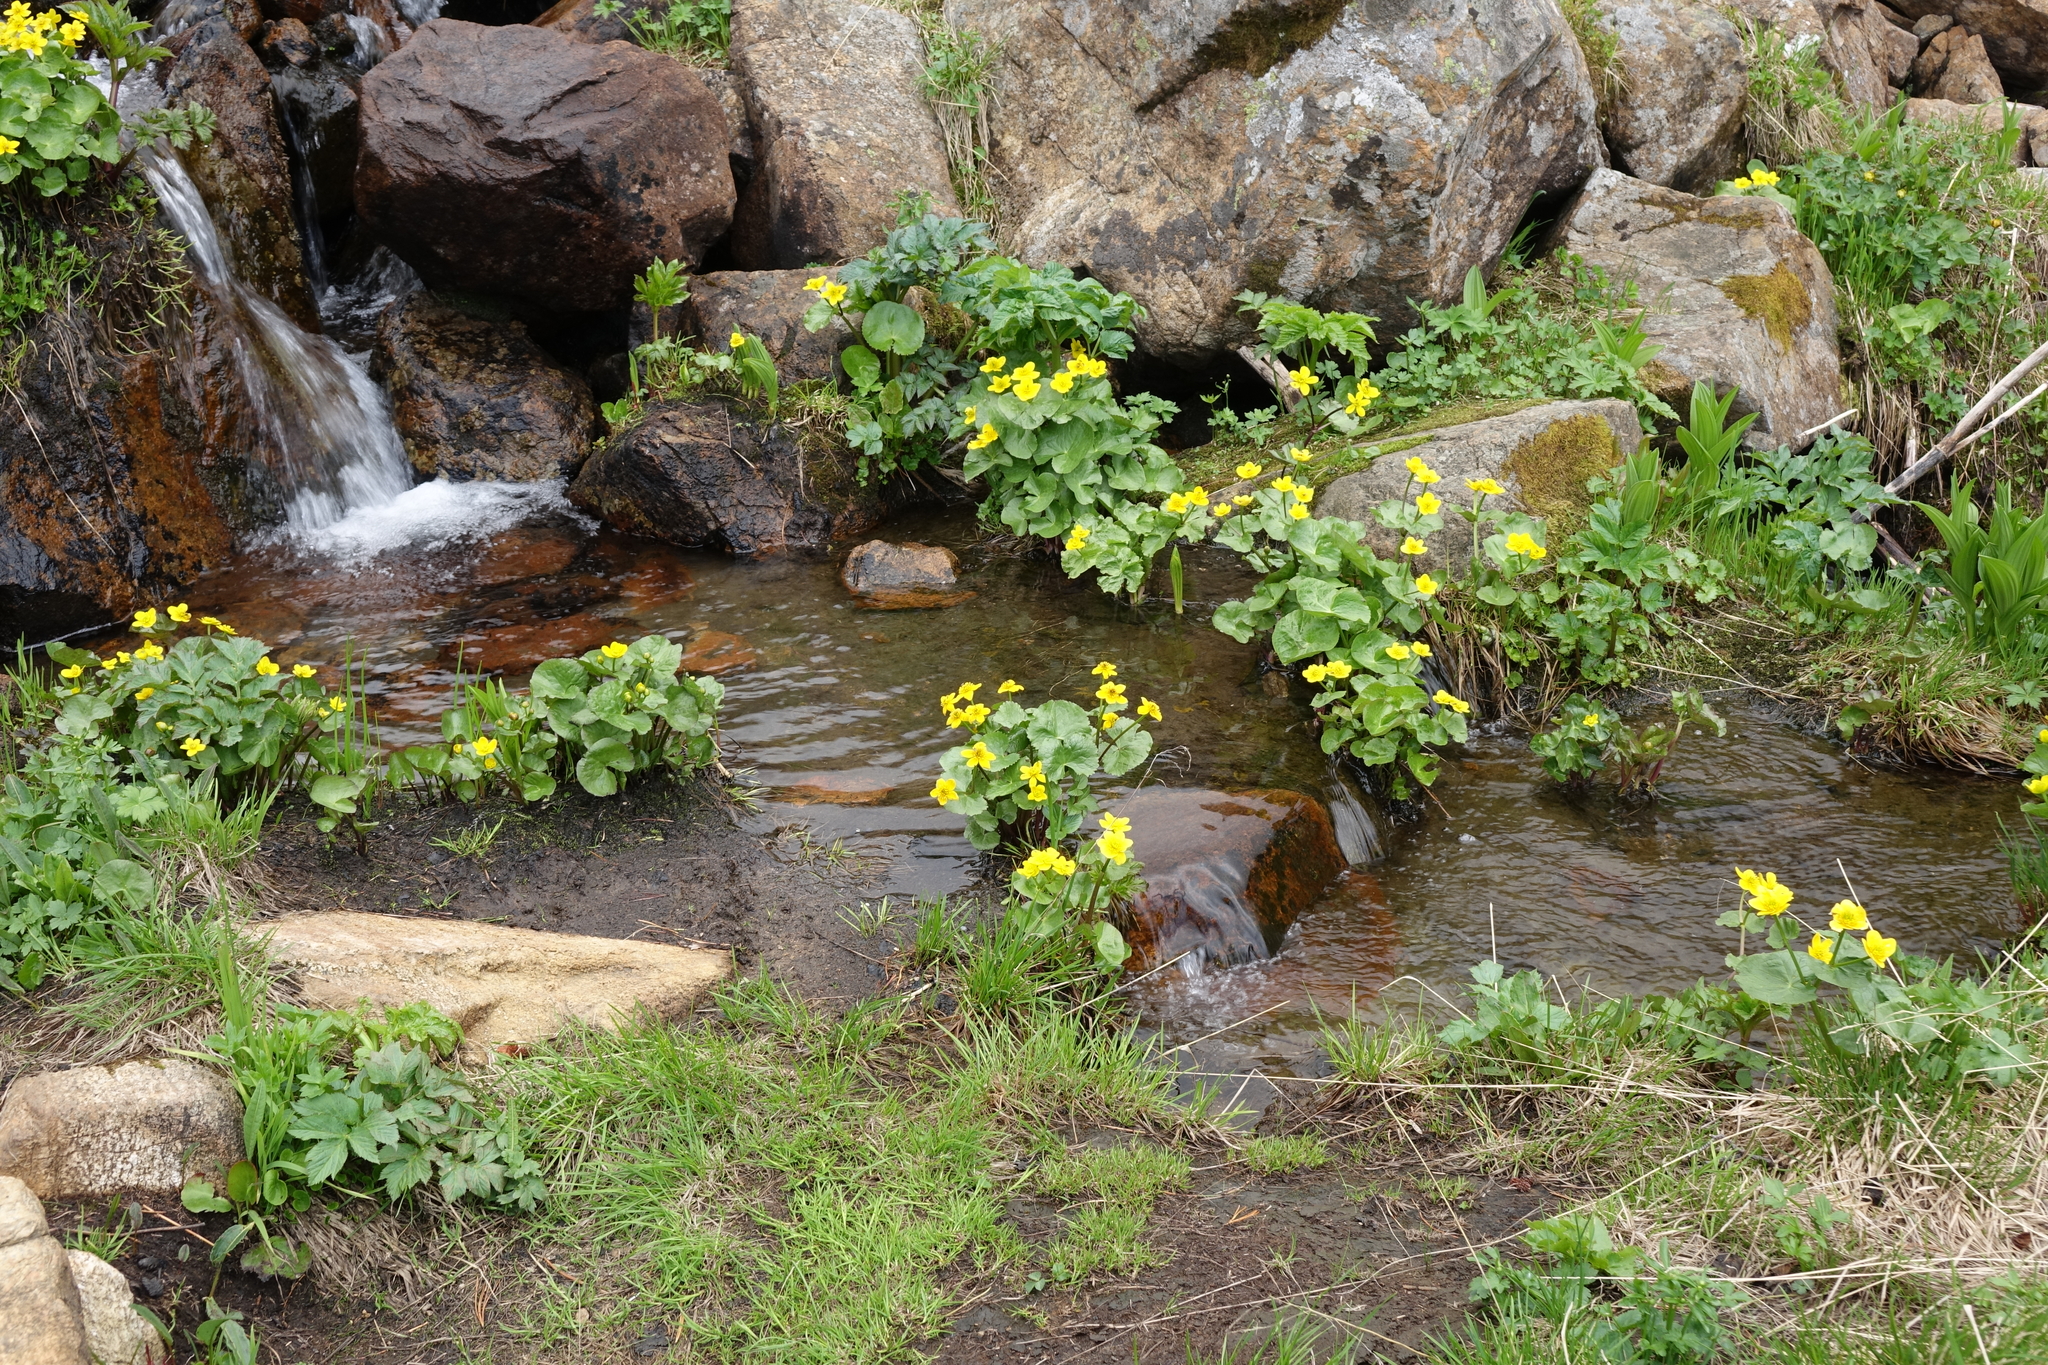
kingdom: Plantae
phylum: Tracheophyta
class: Magnoliopsida
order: Ranunculales
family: Ranunculaceae
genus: Caltha
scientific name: Caltha palustris
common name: Marsh marigold
